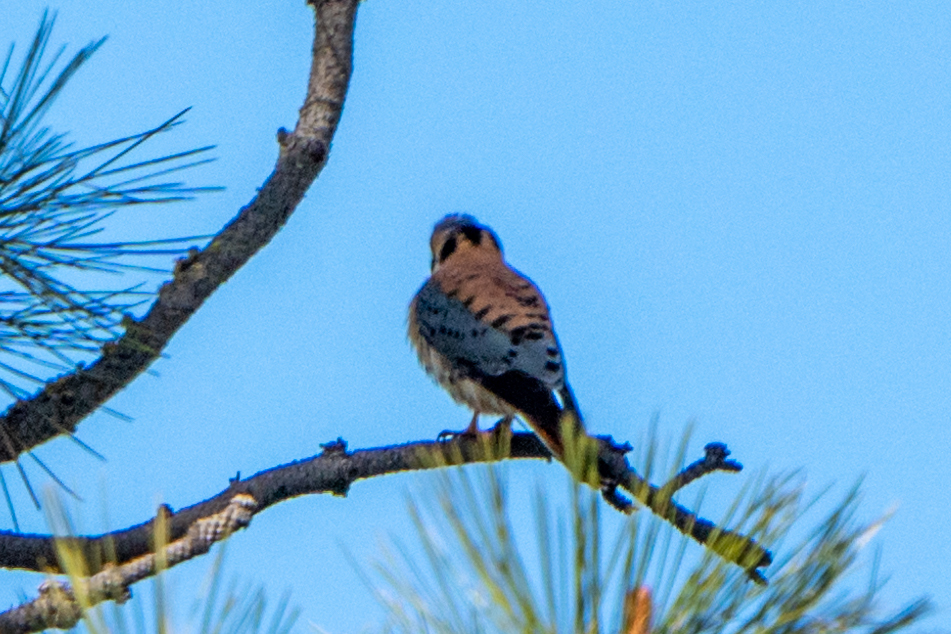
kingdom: Animalia
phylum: Chordata
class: Aves
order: Falconiformes
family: Falconidae
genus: Falco
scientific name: Falco sparverius
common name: American kestrel
